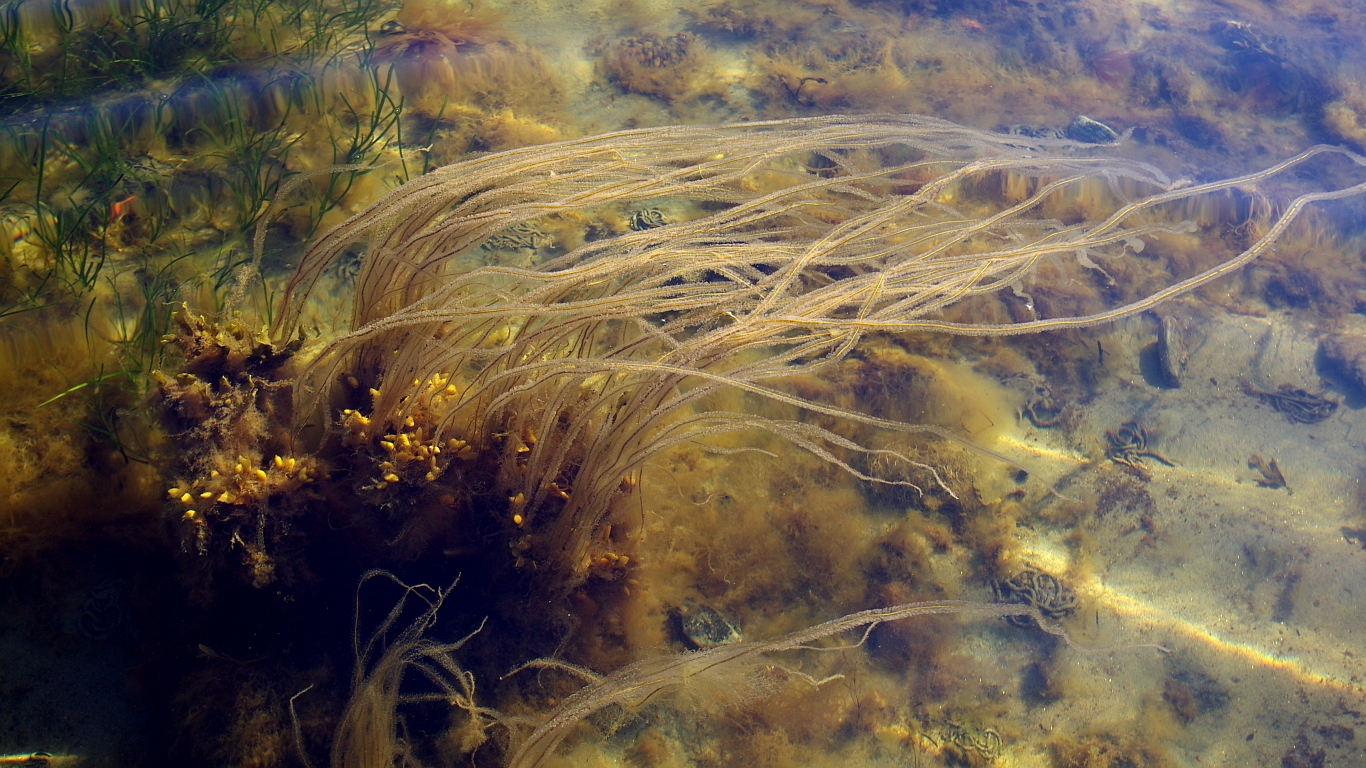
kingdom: Chromista
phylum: Ochrophyta
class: Phaeophyceae
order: Tilopteridales
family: Halosiphonaceae
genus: Halosiphon
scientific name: Halosiphon tomentosus
